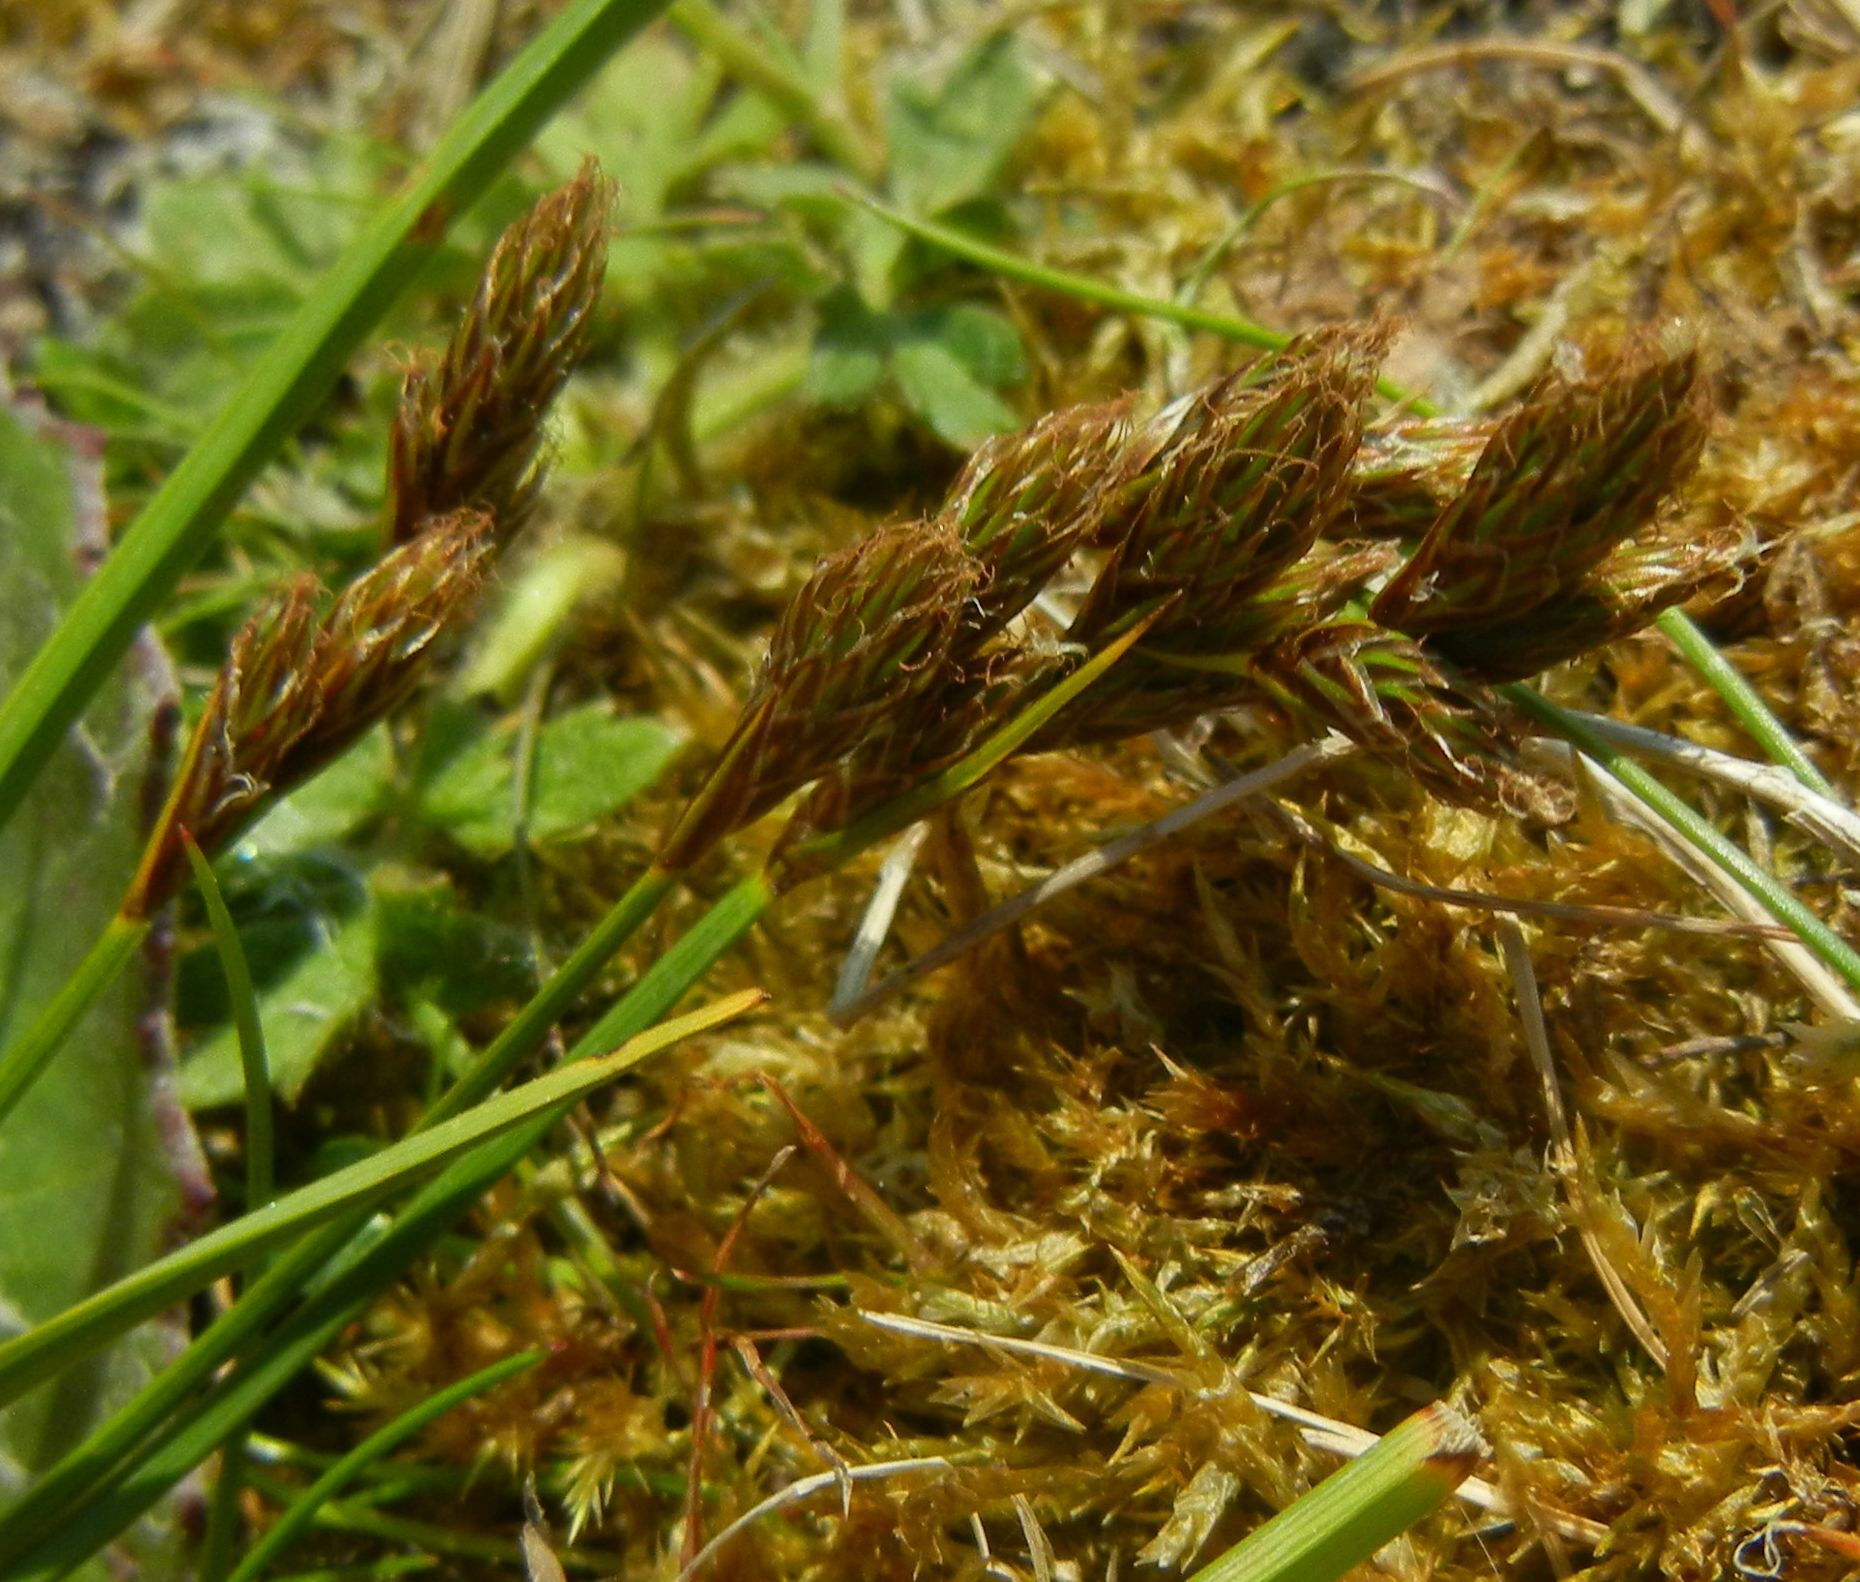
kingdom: Plantae
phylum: Tracheophyta
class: Liliopsida
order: Poales
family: Cyperaceae
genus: Carex
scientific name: Carex leporina
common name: Oval sedge
